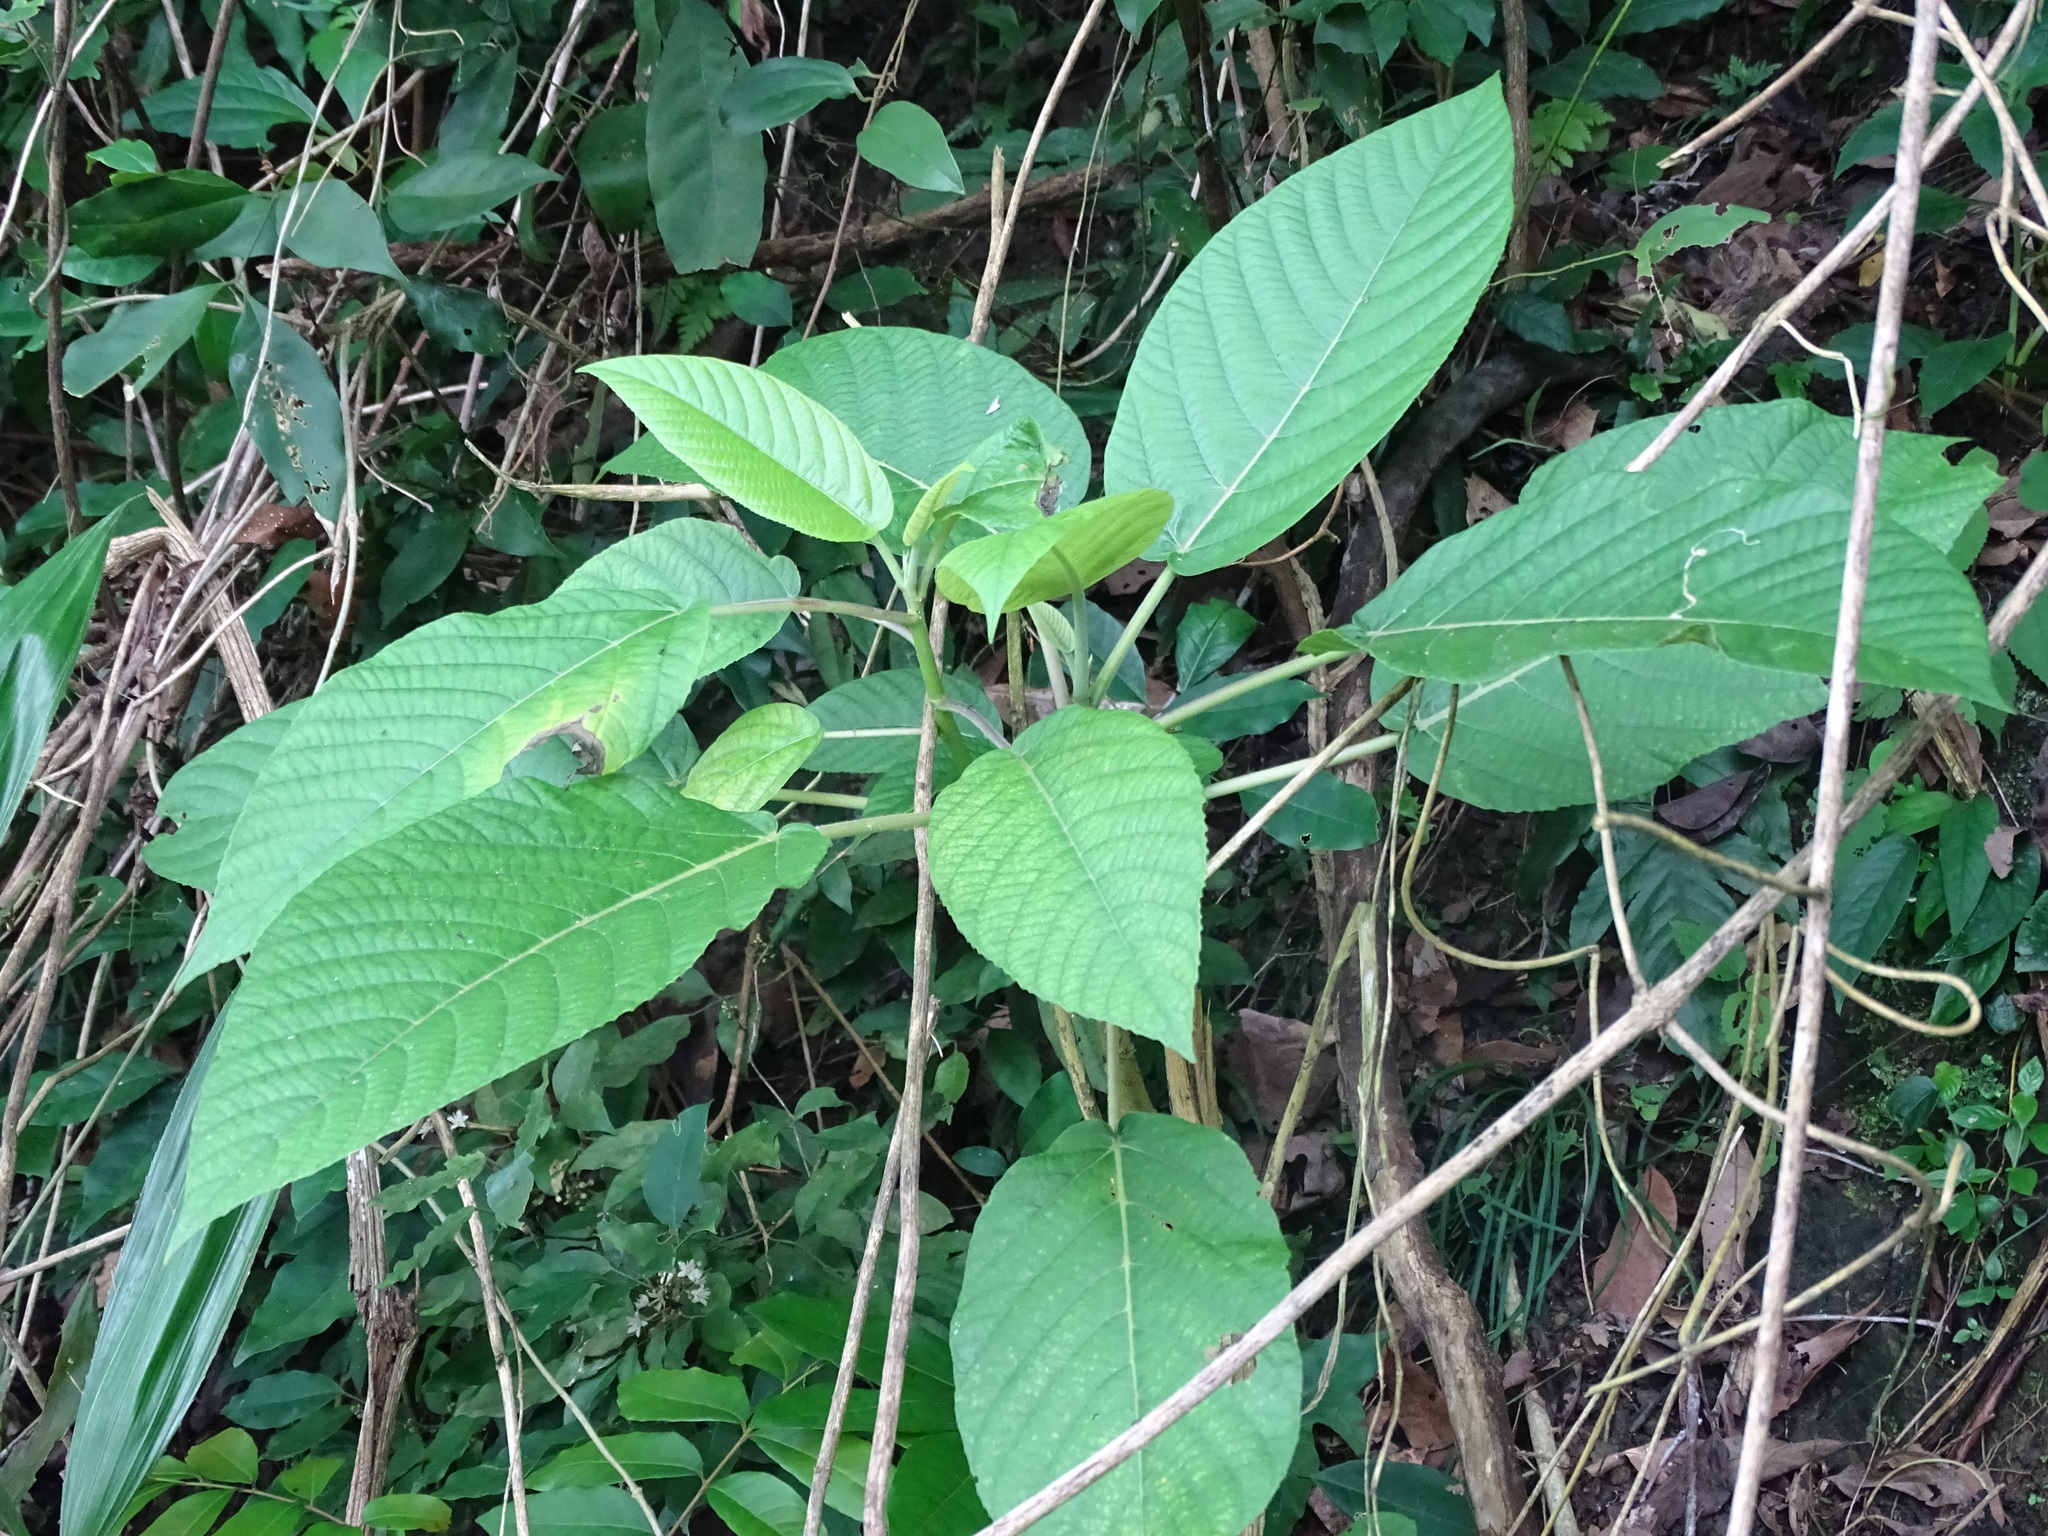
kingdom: Plantae
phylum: Tracheophyta
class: Magnoliopsida
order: Rosales
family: Urticaceae
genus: Dendrocnide
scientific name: Dendrocnide meyeniana
